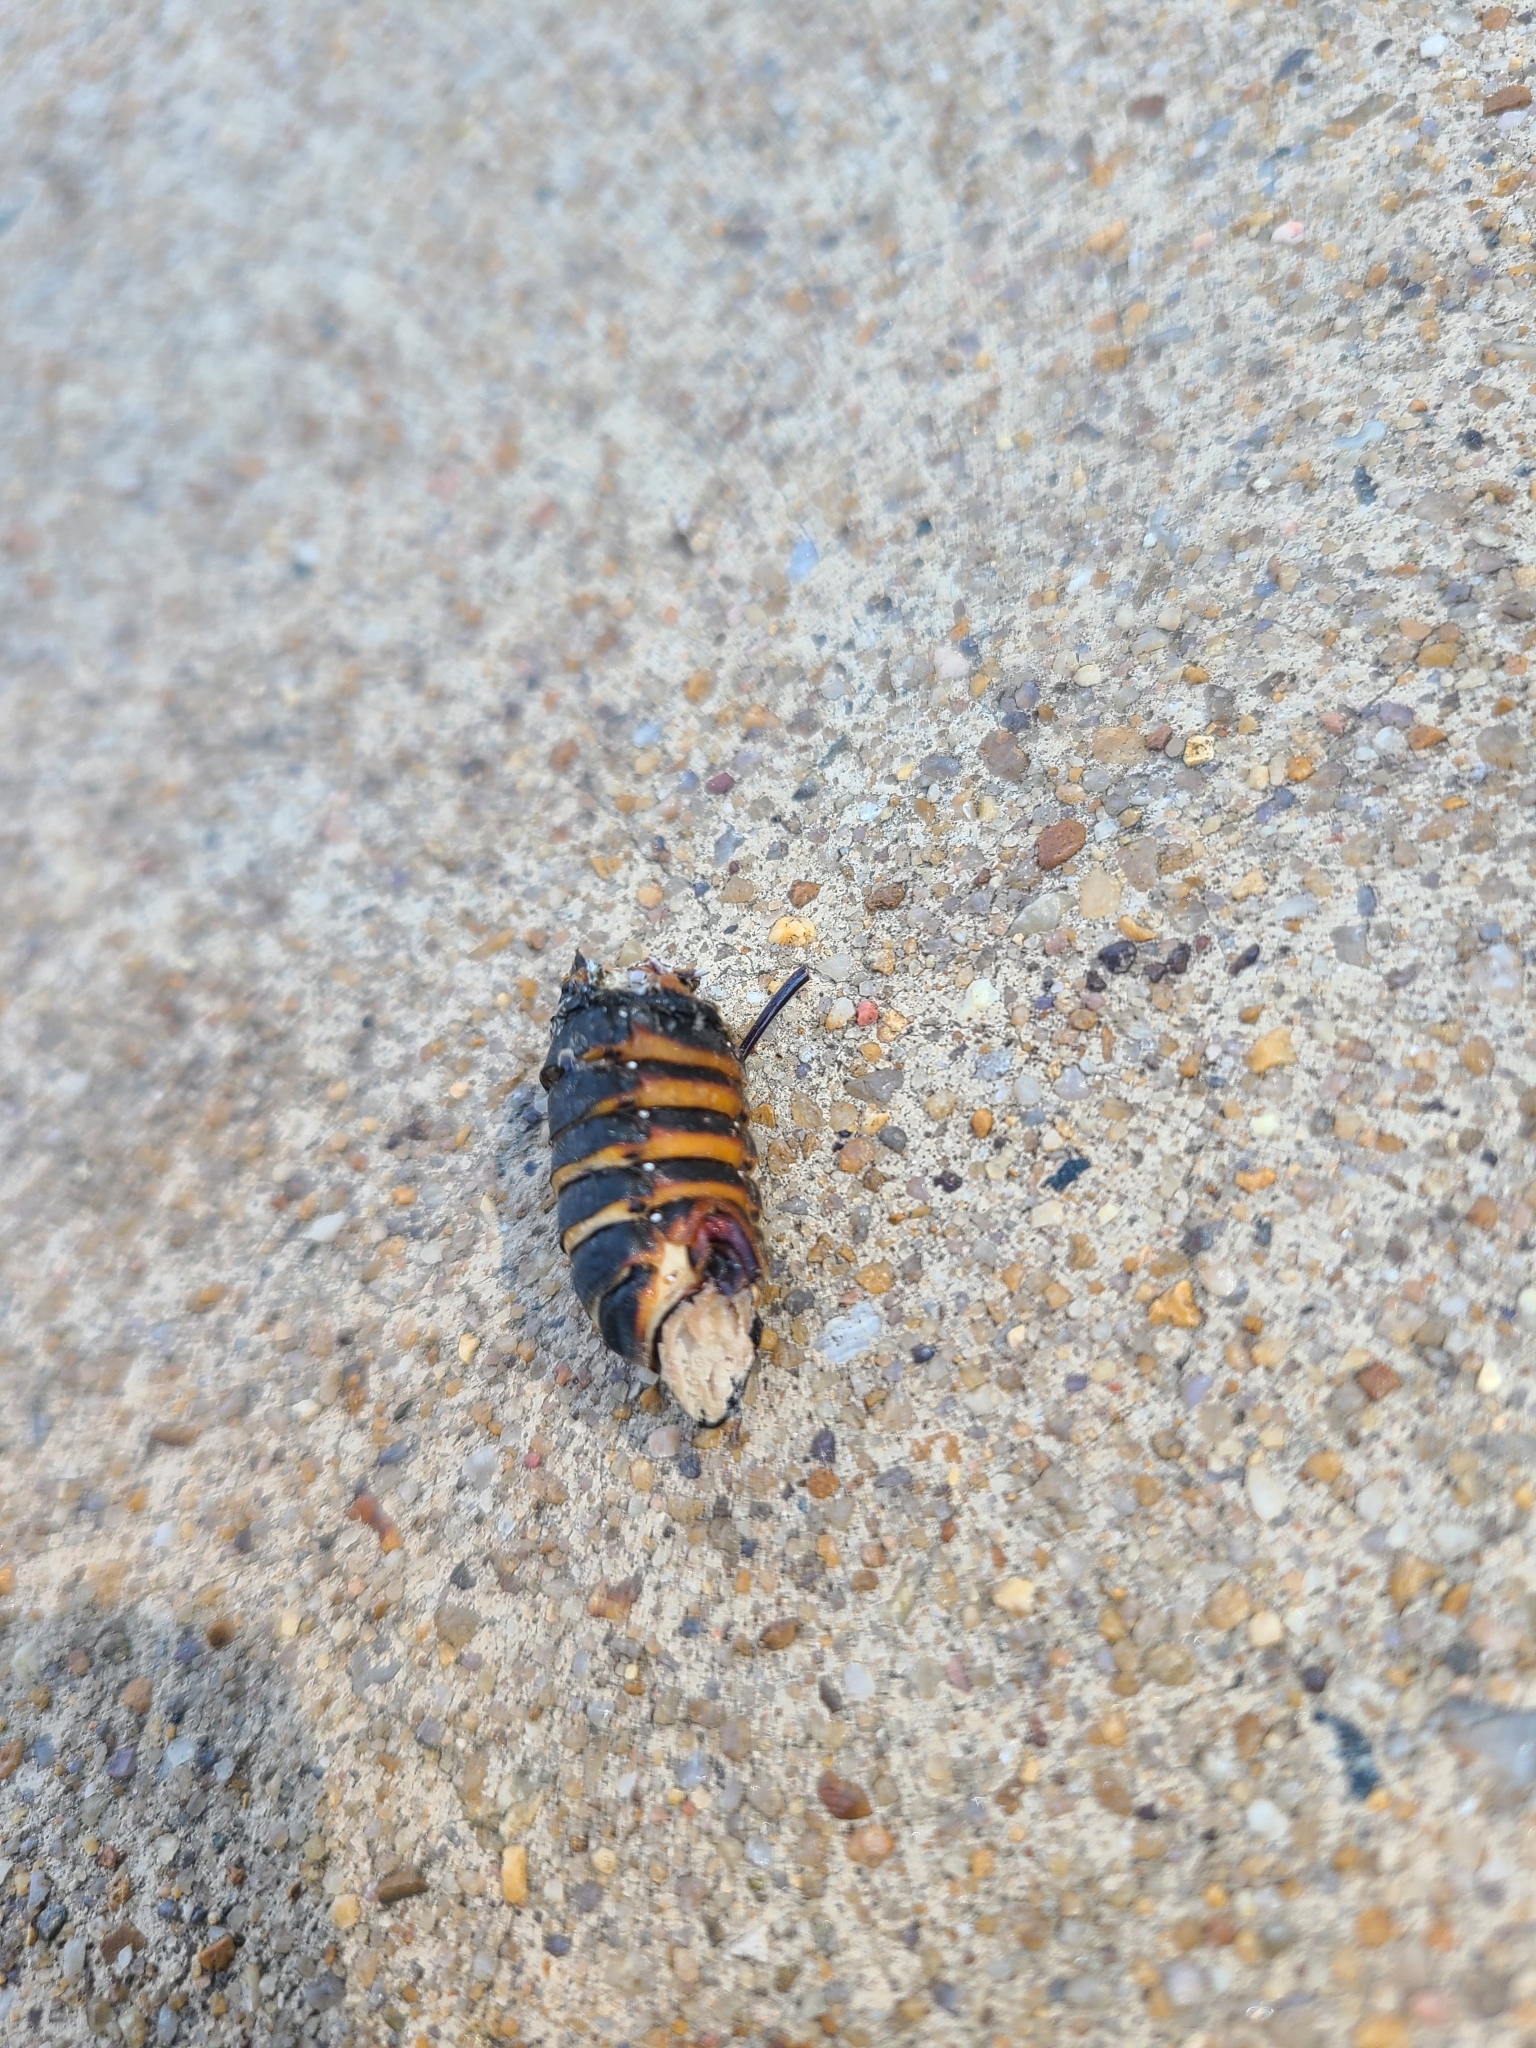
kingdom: Fungi
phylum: Entomophthoromycota
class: Entomophthoromycetes
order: Entomophthorales
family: Entomophthoraceae
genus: Massospora
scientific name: Massospora cicadina
